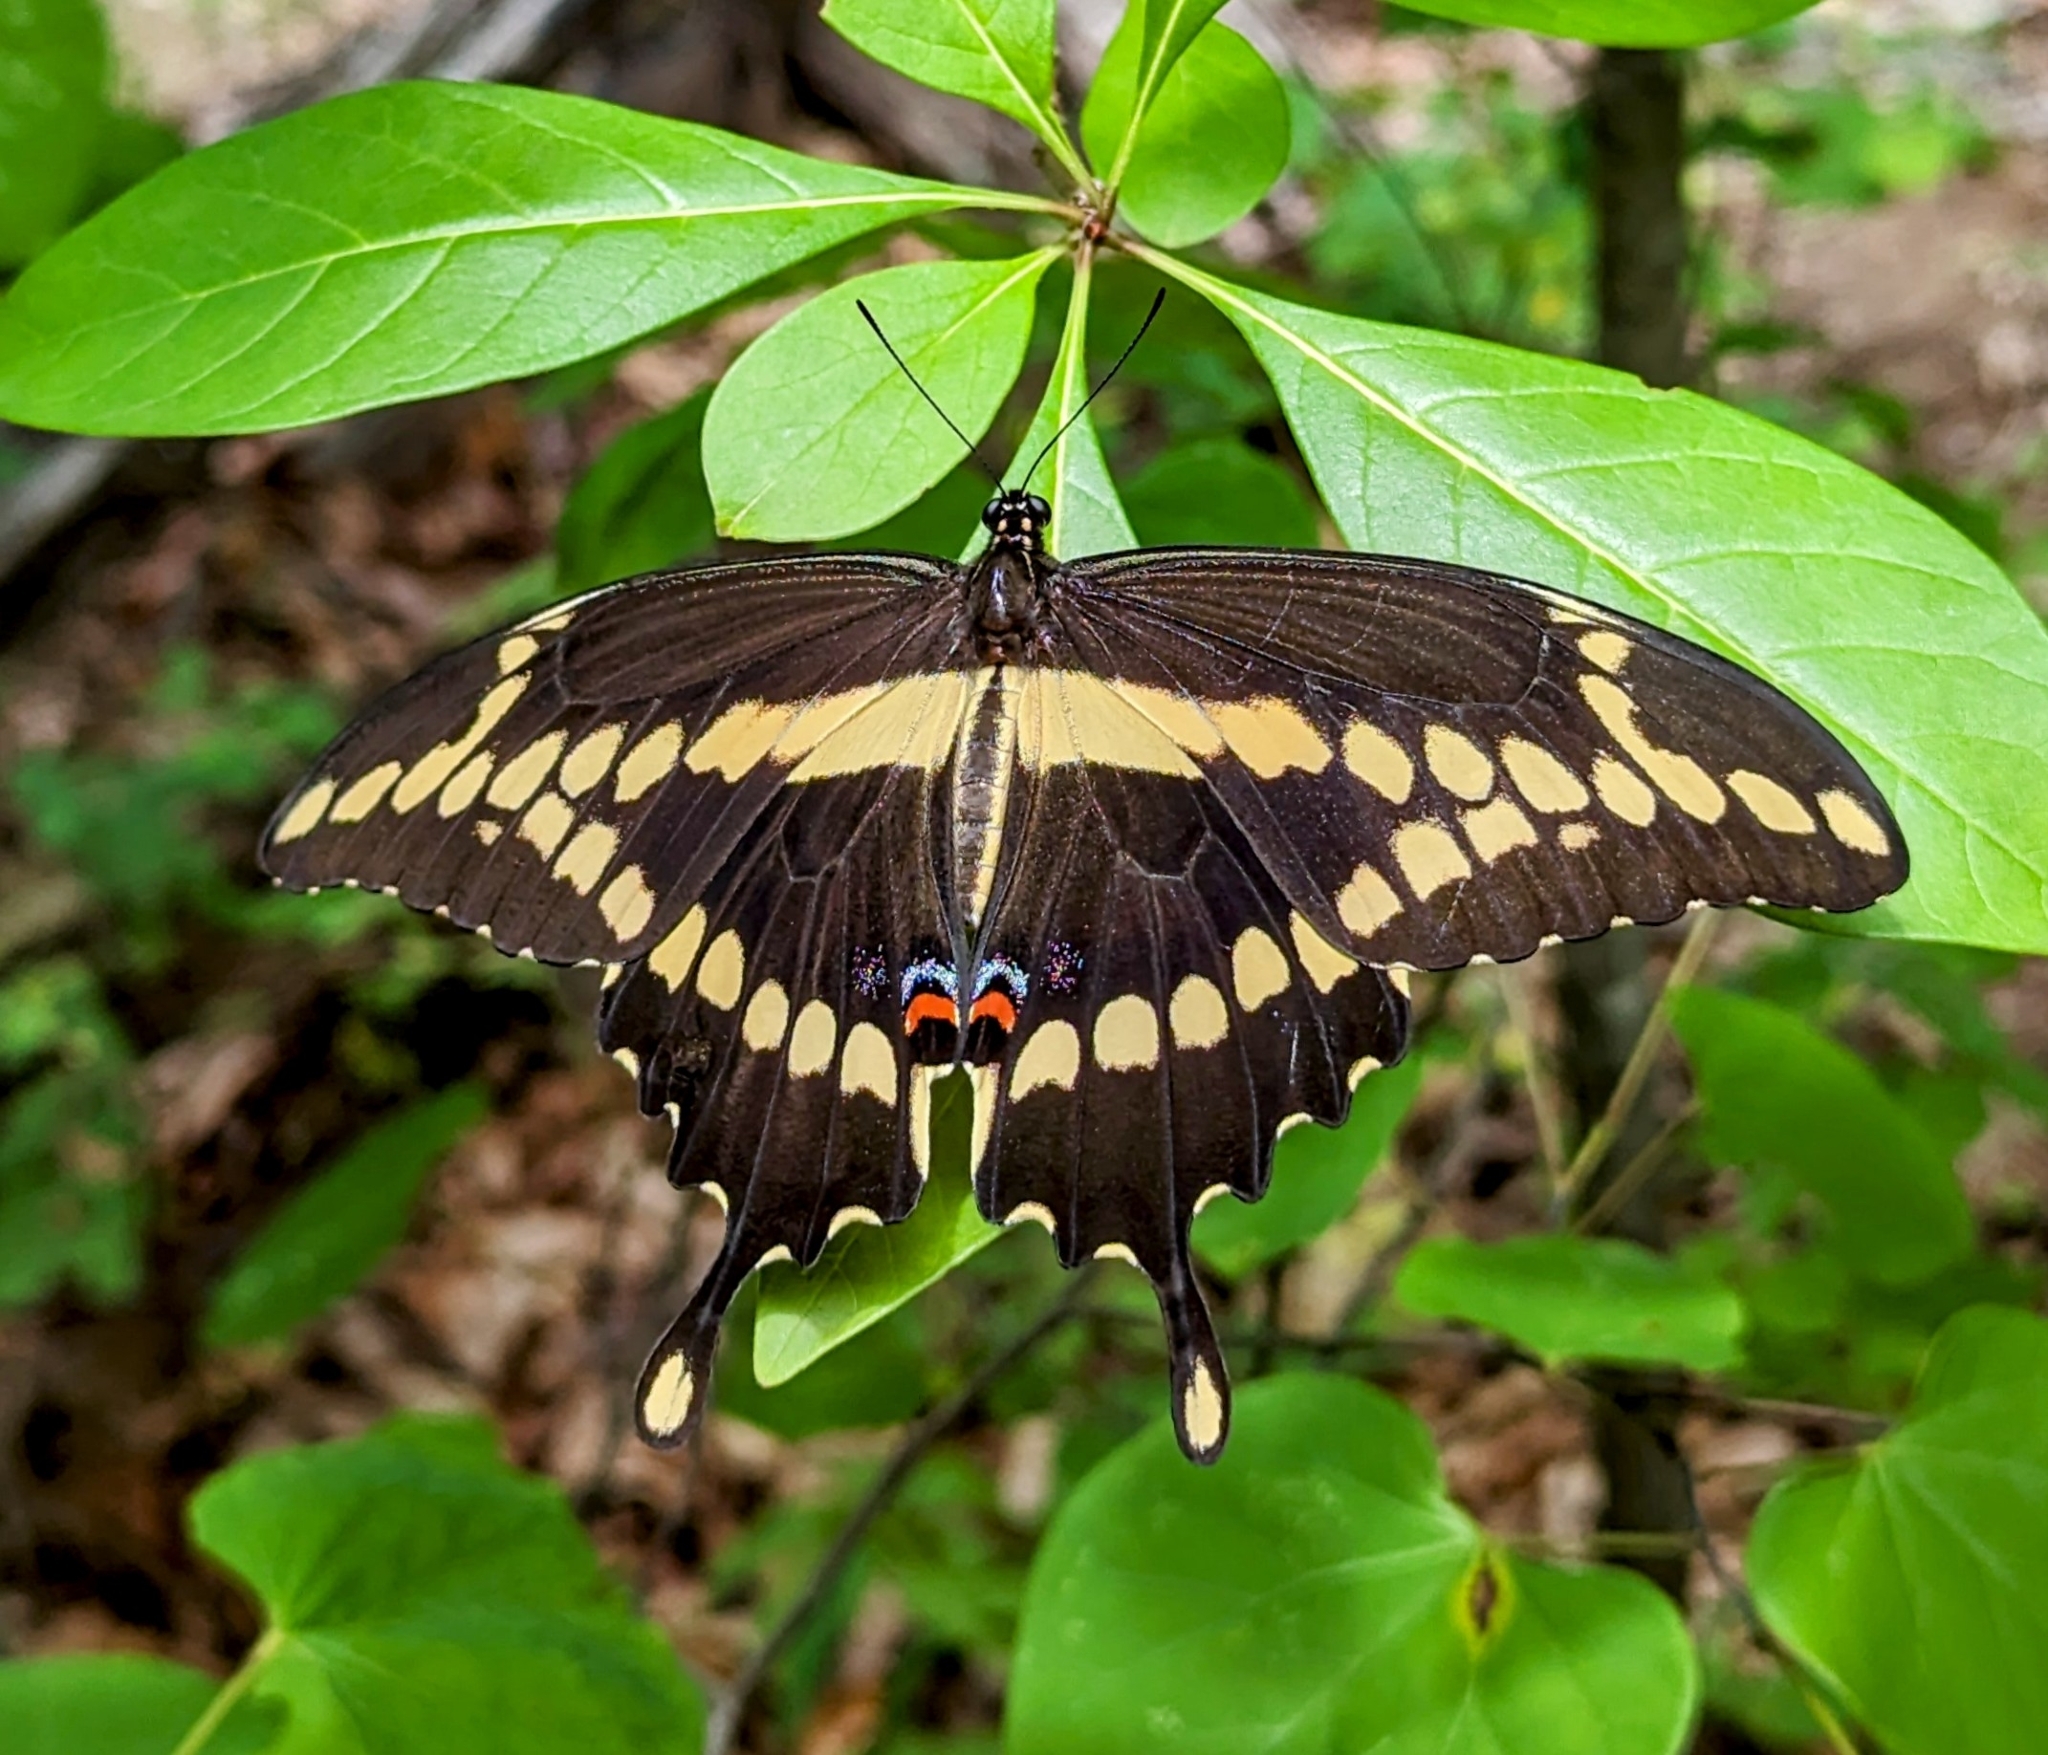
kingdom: Animalia
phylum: Arthropoda
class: Insecta
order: Lepidoptera
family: Papilionidae
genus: Papilio
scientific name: Papilio cresphontes
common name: Giant swallowtail
